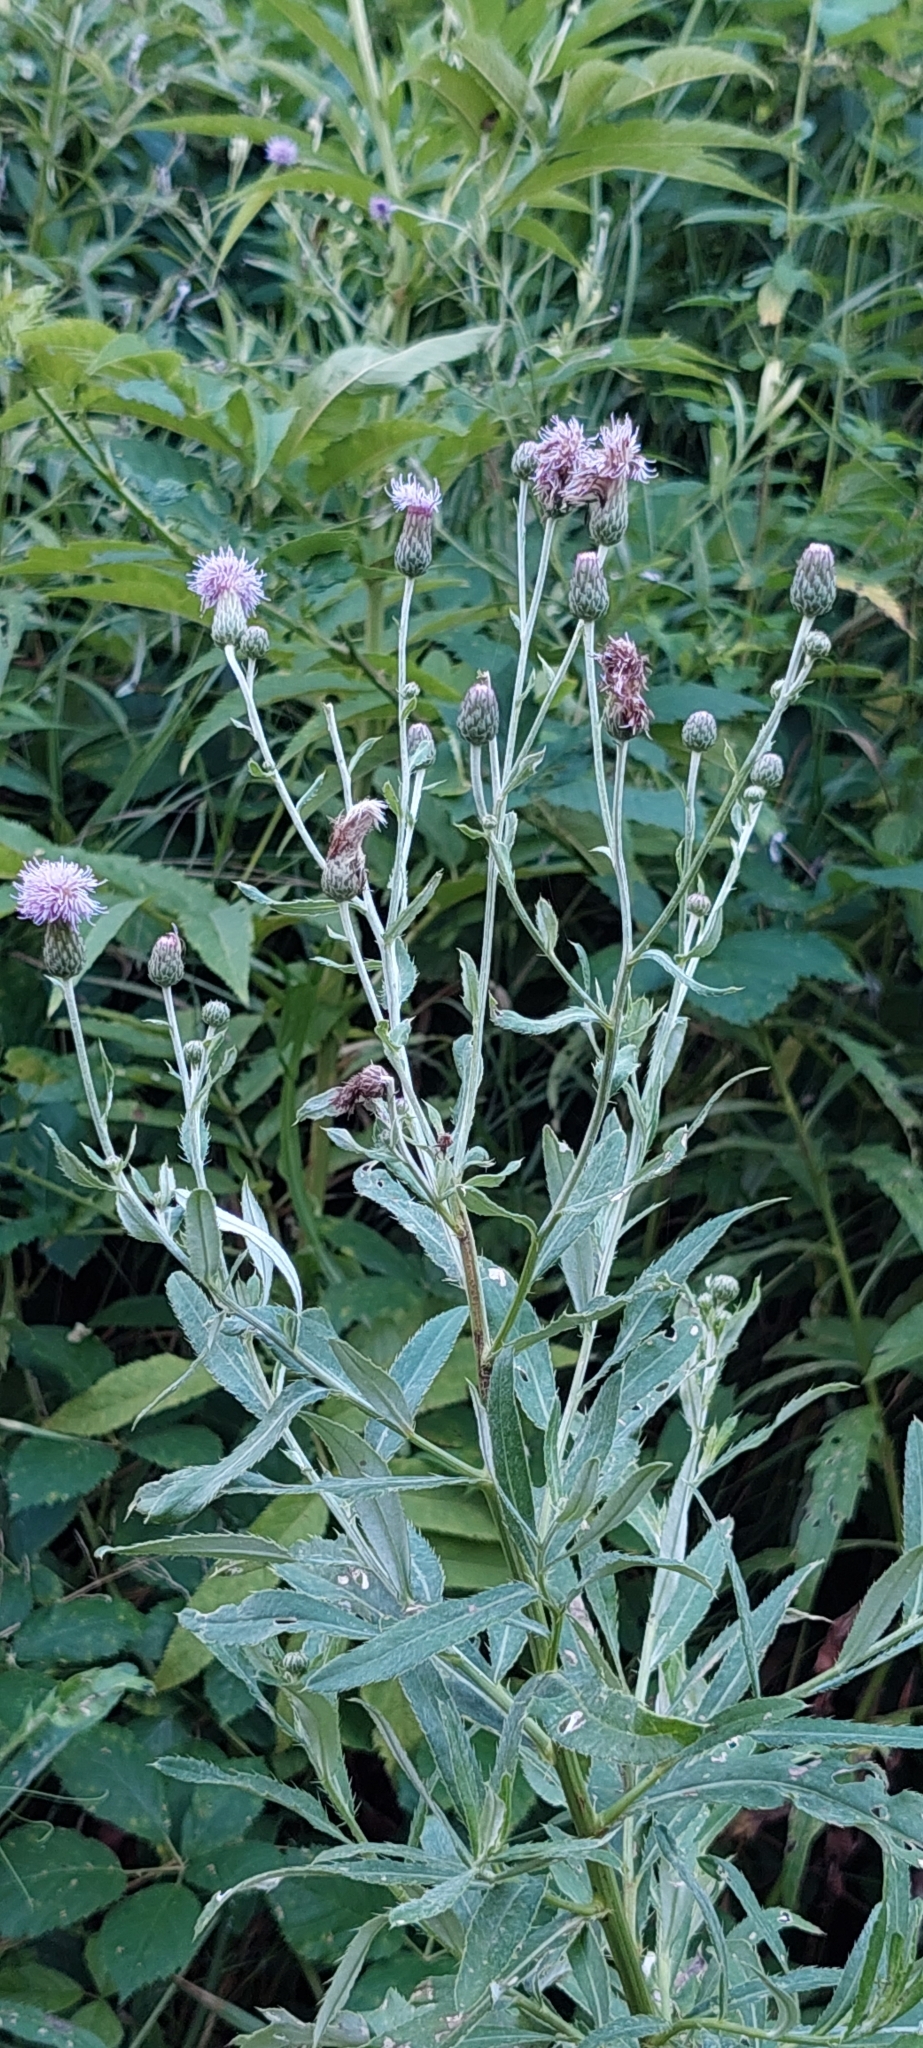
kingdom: Plantae
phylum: Tracheophyta
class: Magnoliopsida
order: Asterales
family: Asteraceae
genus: Cirsium
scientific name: Cirsium arvense
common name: Creeping thistle
